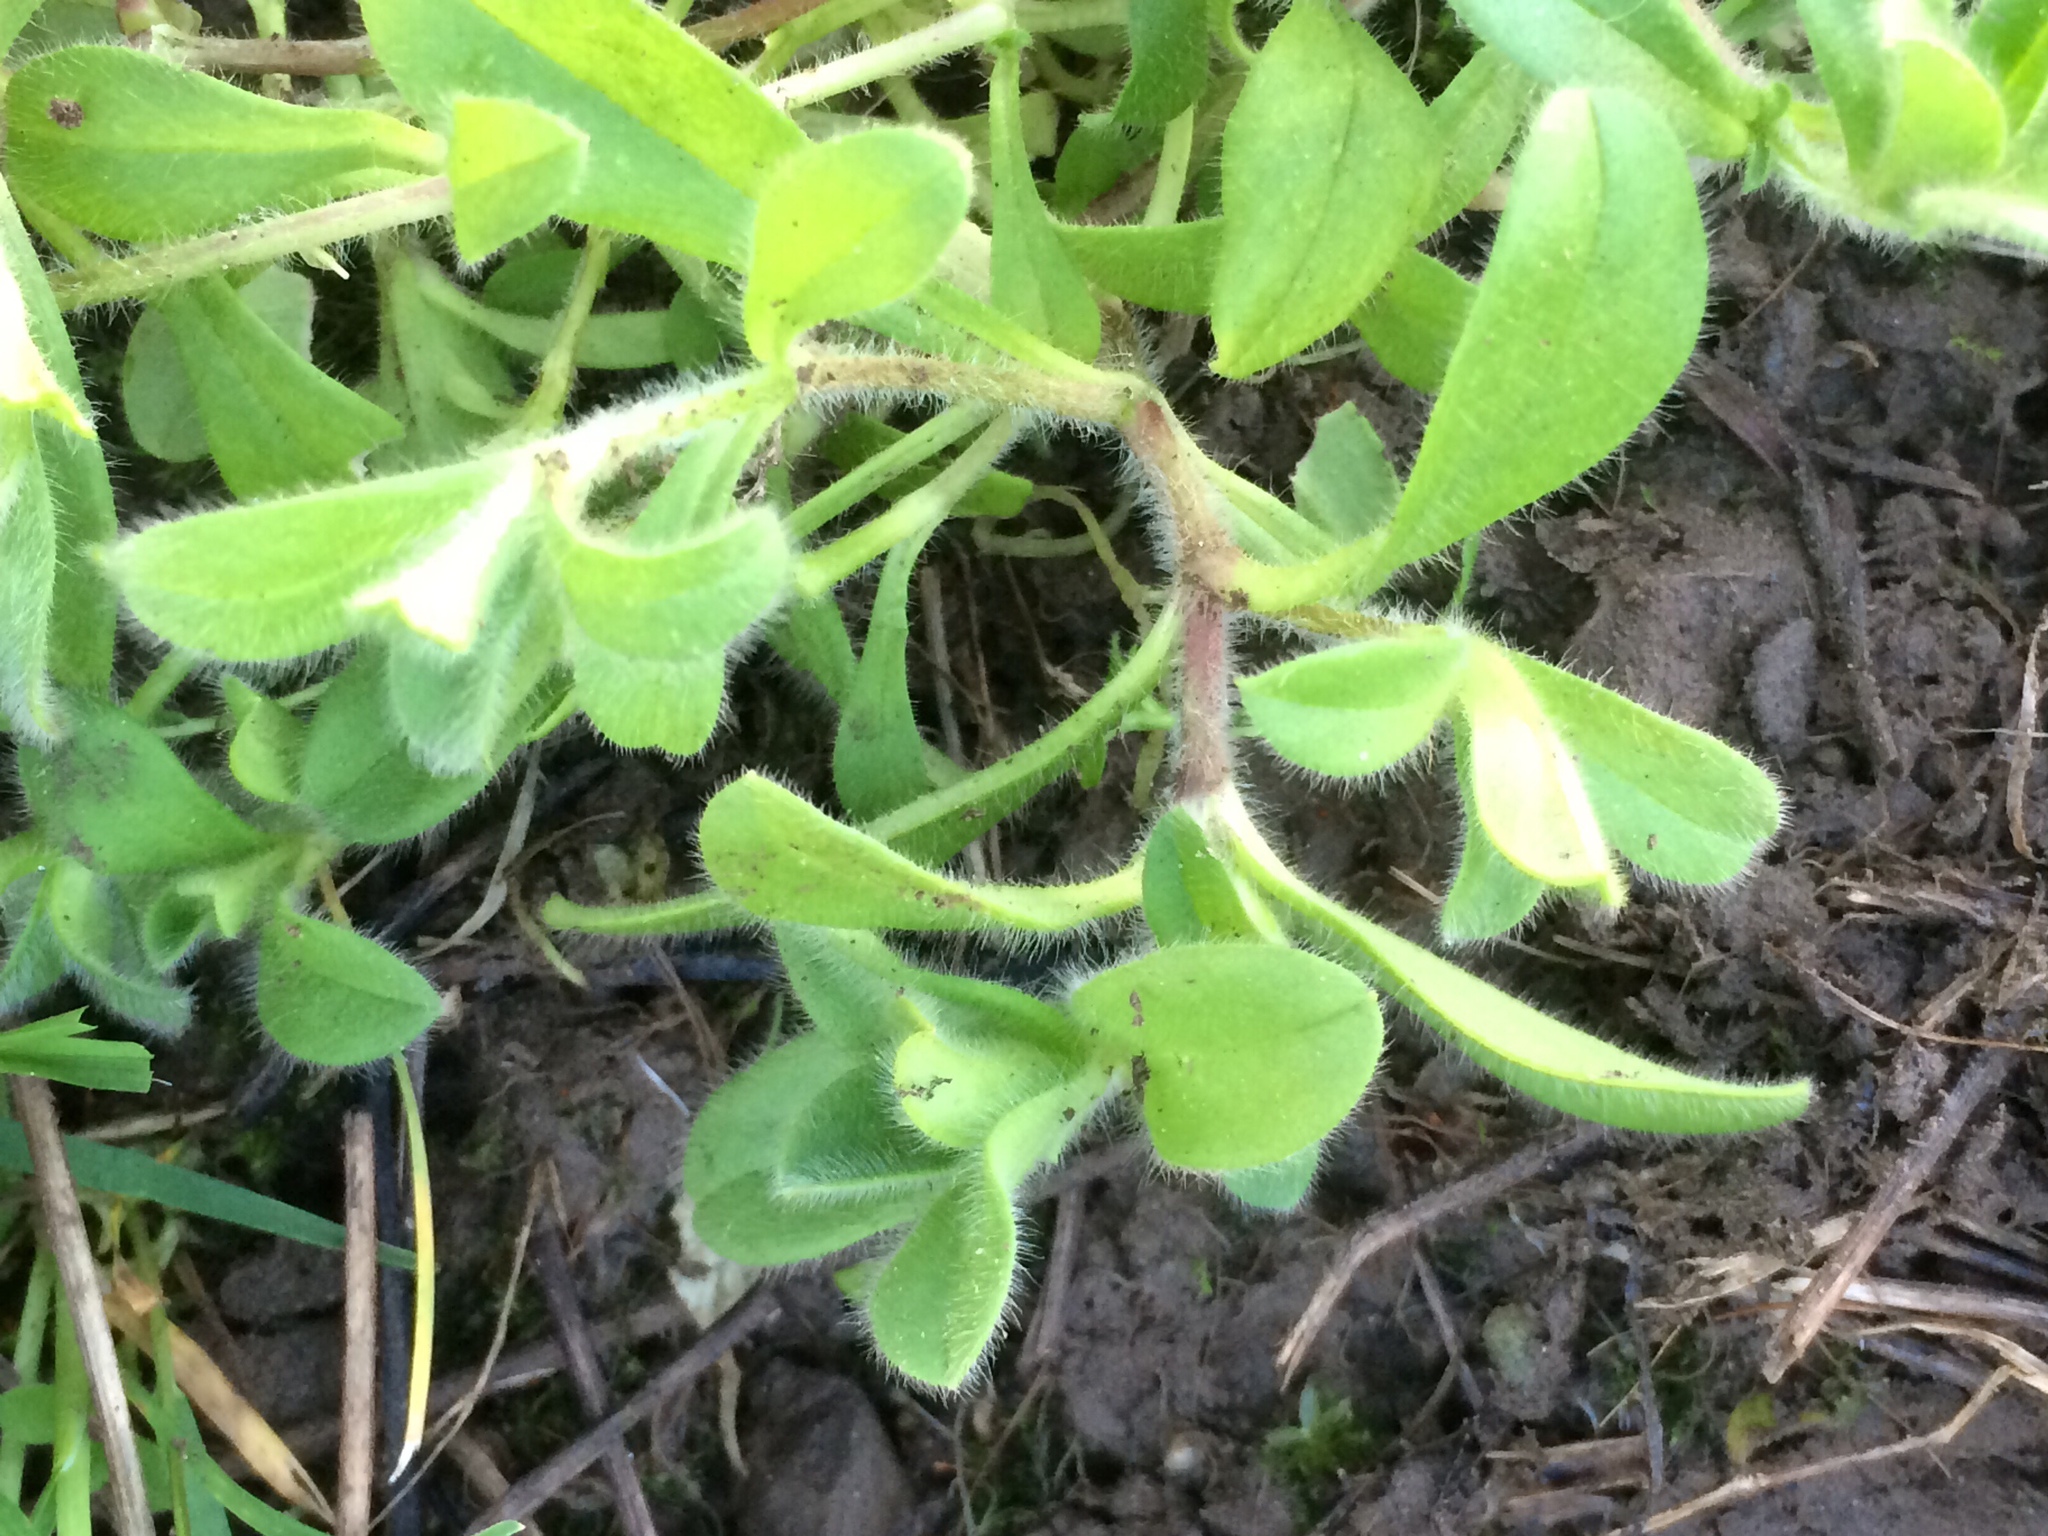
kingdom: Plantae
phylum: Tracheophyta
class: Magnoliopsida
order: Caryophyllales
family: Caryophyllaceae
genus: Cerastium
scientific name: Cerastium glomeratum
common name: Sticky chickweed
